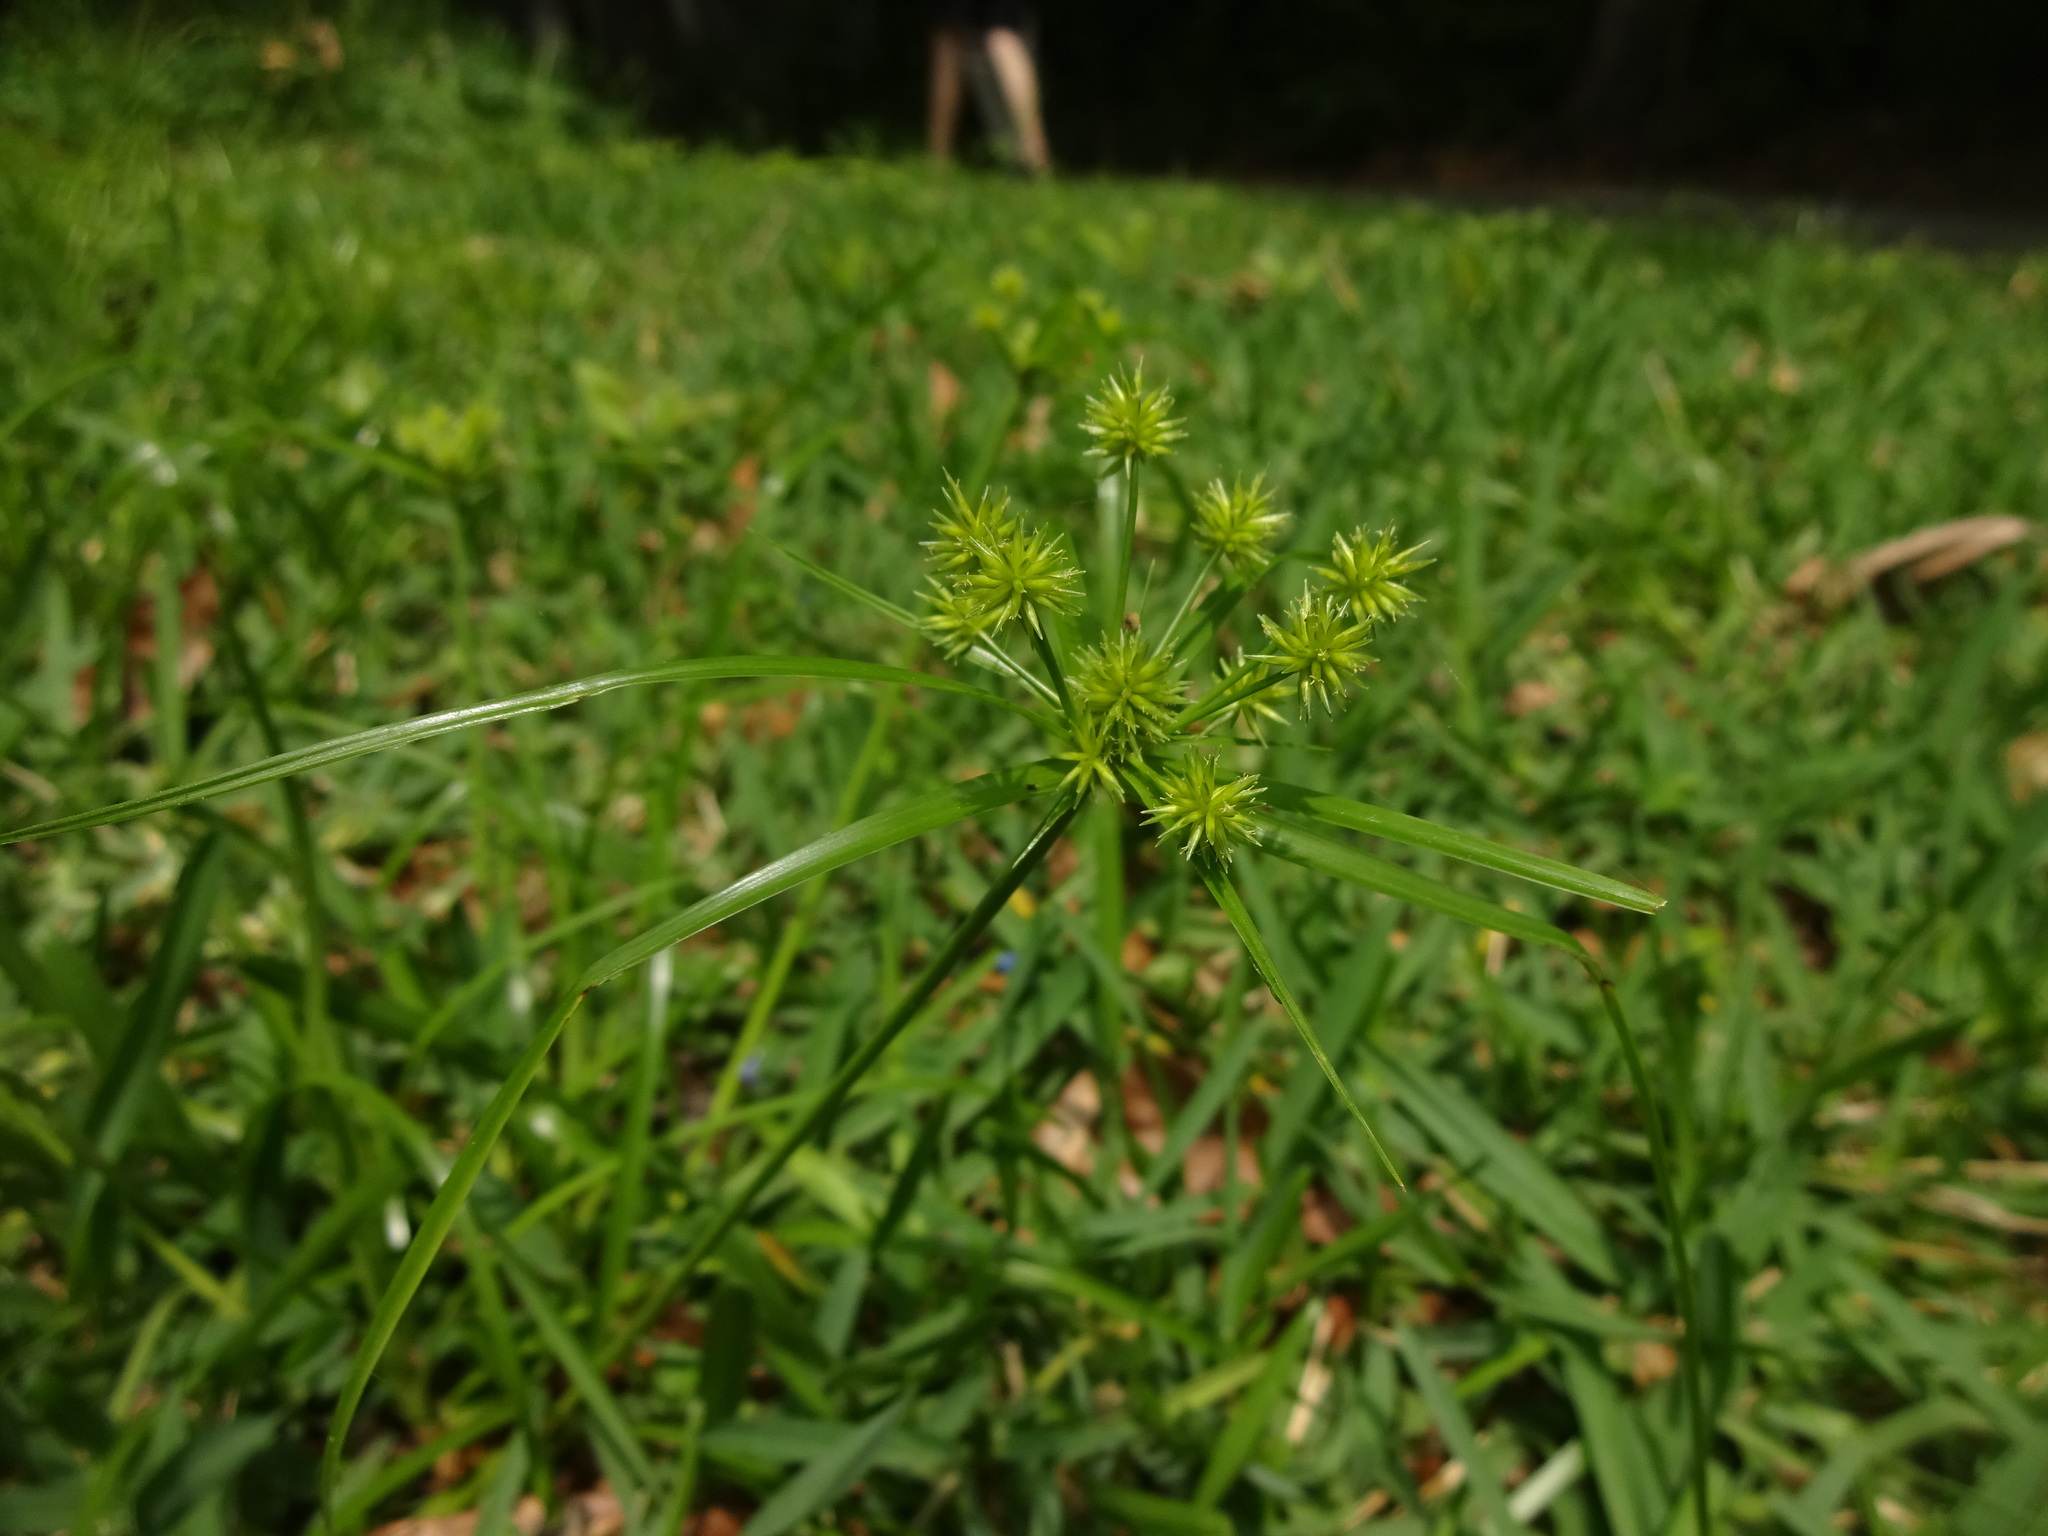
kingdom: Plantae
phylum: Tracheophyta
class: Liliopsida
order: Poales
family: Cyperaceae
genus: Cyperus
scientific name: Cyperus croceus
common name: Baldwin's flatsedge
